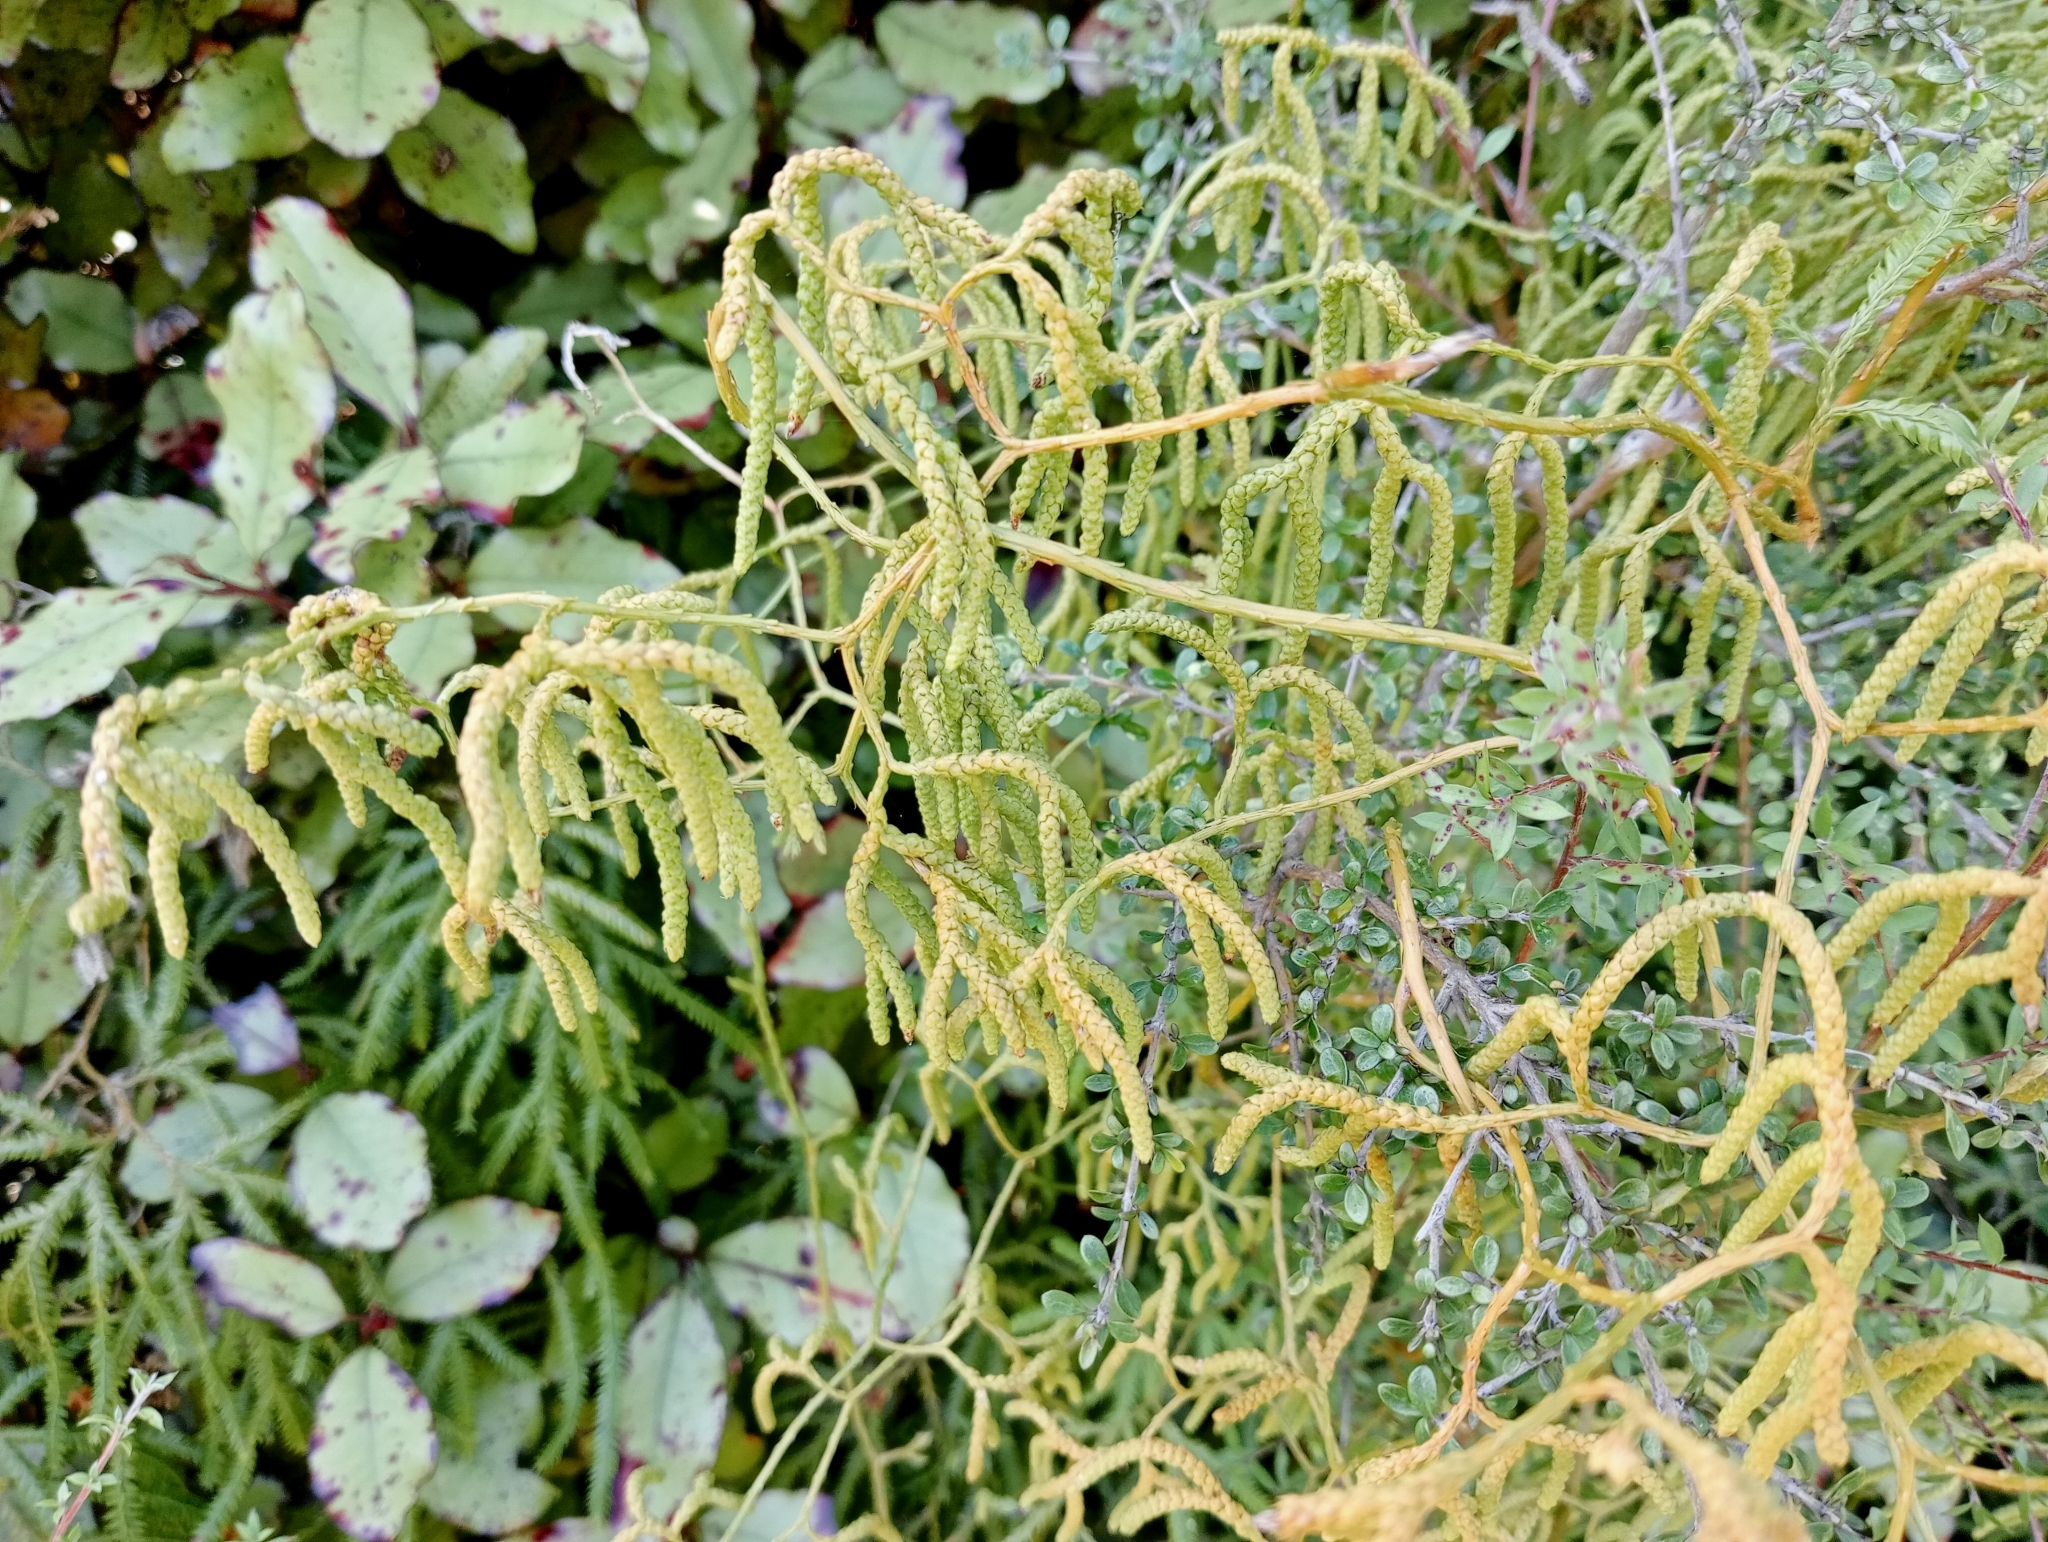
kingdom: Plantae
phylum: Tracheophyta
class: Lycopodiopsida
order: Lycopodiales
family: Lycopodiaceae
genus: Lycopodium
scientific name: Lycopodium volubile
